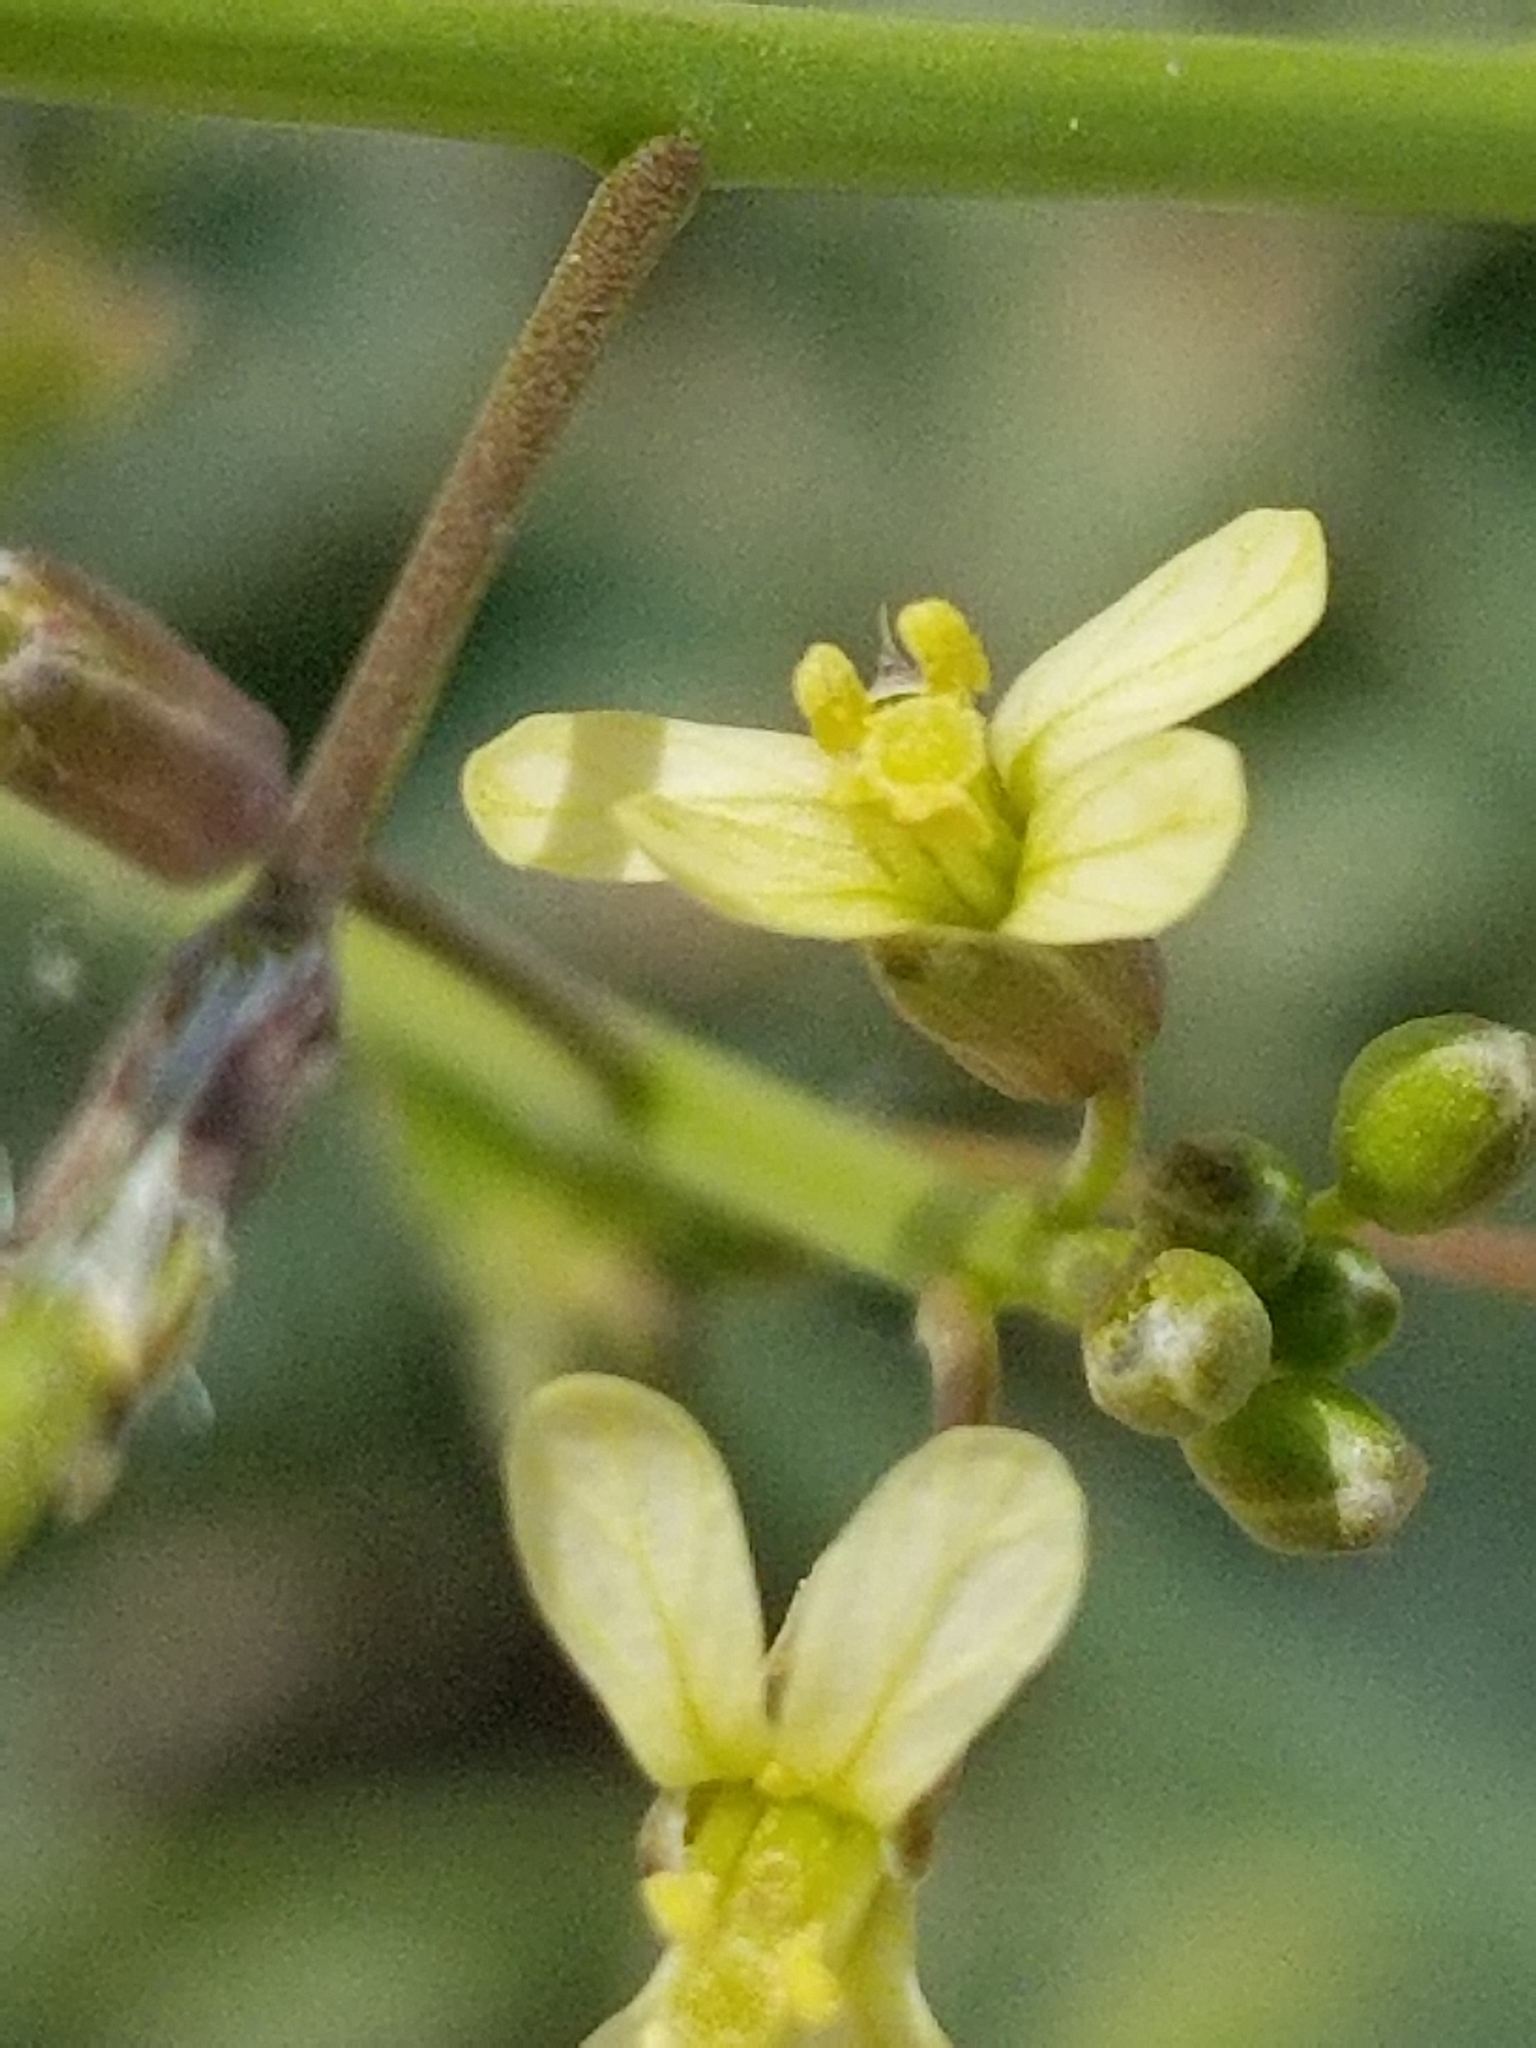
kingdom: Plantae
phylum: Tracheophyta
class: Magnoliopsida
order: Brassicales
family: Brassicaceae
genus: Brassica
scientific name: Brassica tournefortii
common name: Pale cabbage
